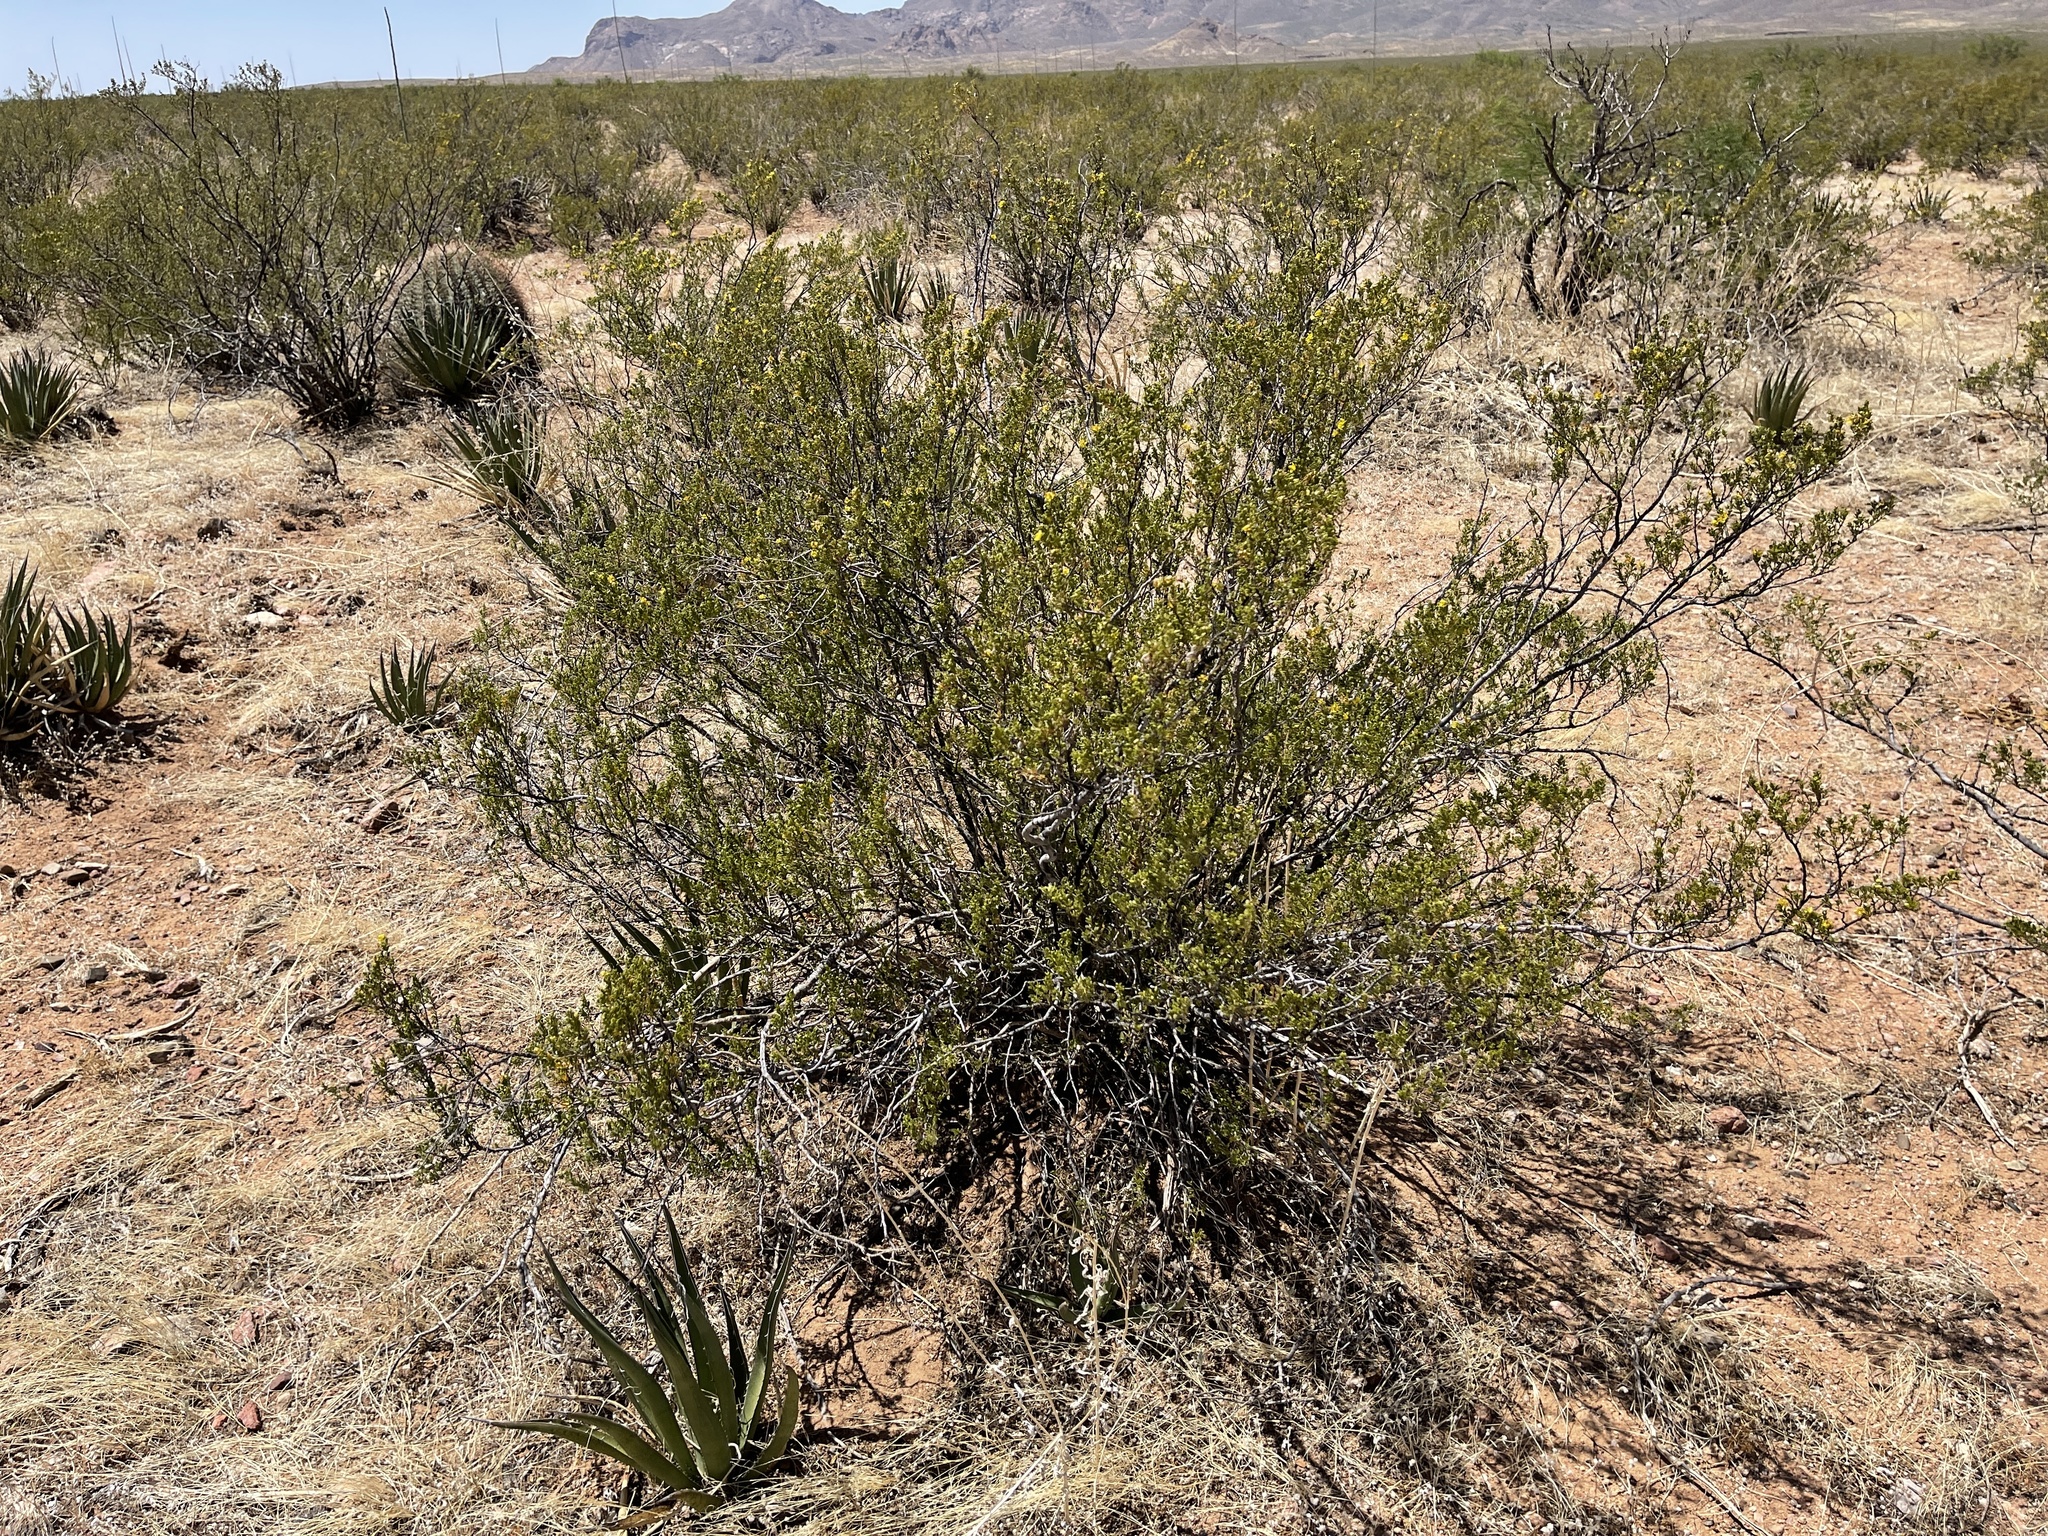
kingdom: Plantae
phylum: Tracheophyta
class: Magnoliopsida
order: Zygophyllales
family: Zygophyllaceae
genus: Larrea
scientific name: Larrea tridentata
